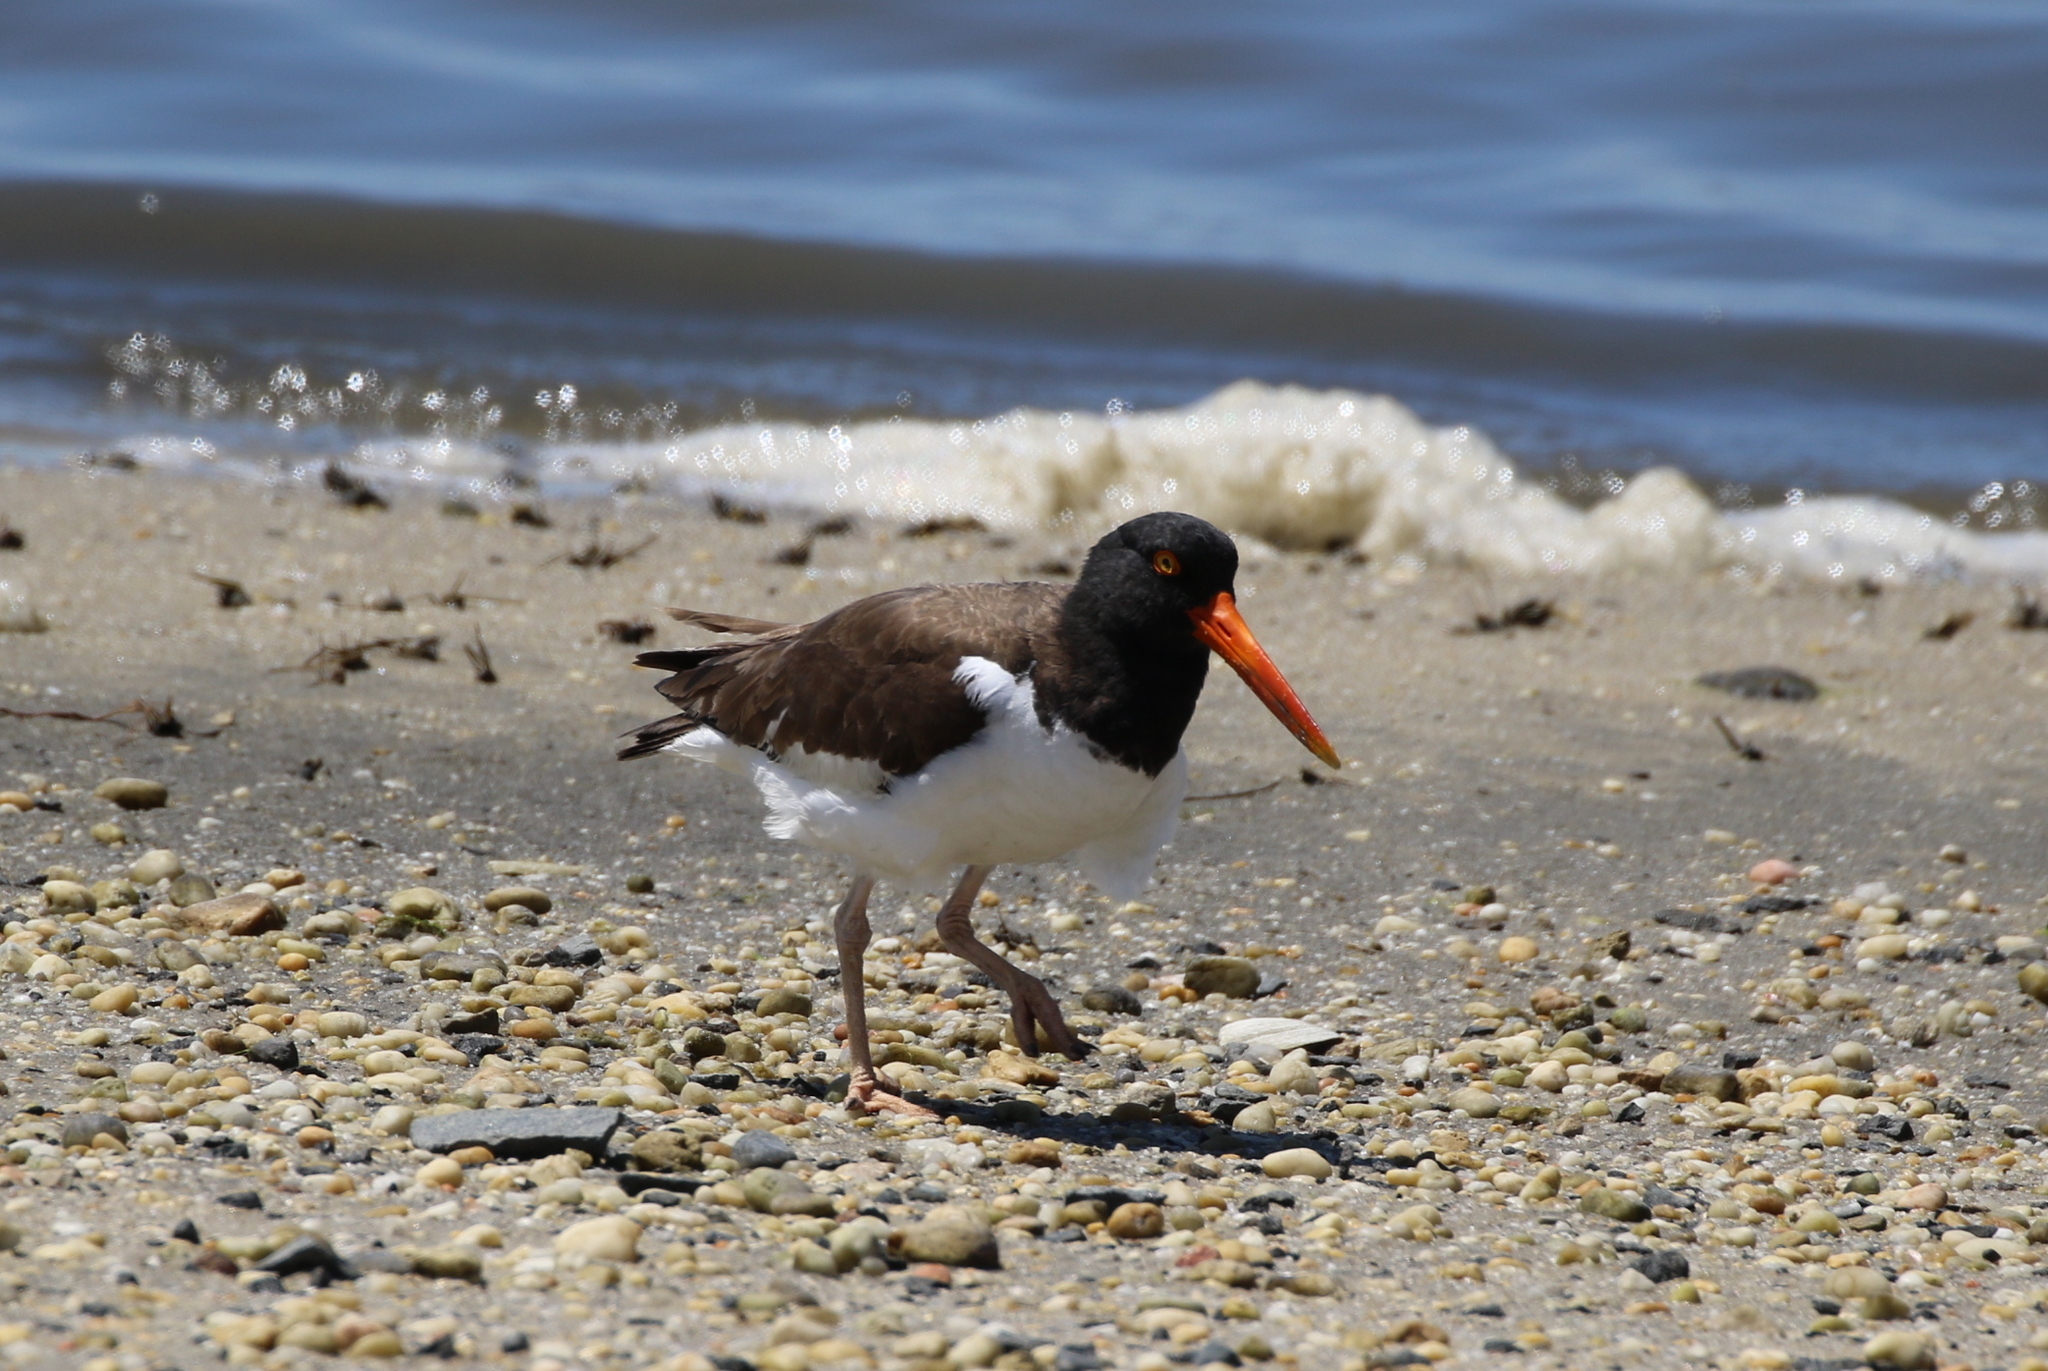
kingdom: Animalia
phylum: Chordata
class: Aves
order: Charadriiformes
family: Haematopodidae
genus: Haematopus
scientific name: Haematopus palliatus
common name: American oystercatcher
